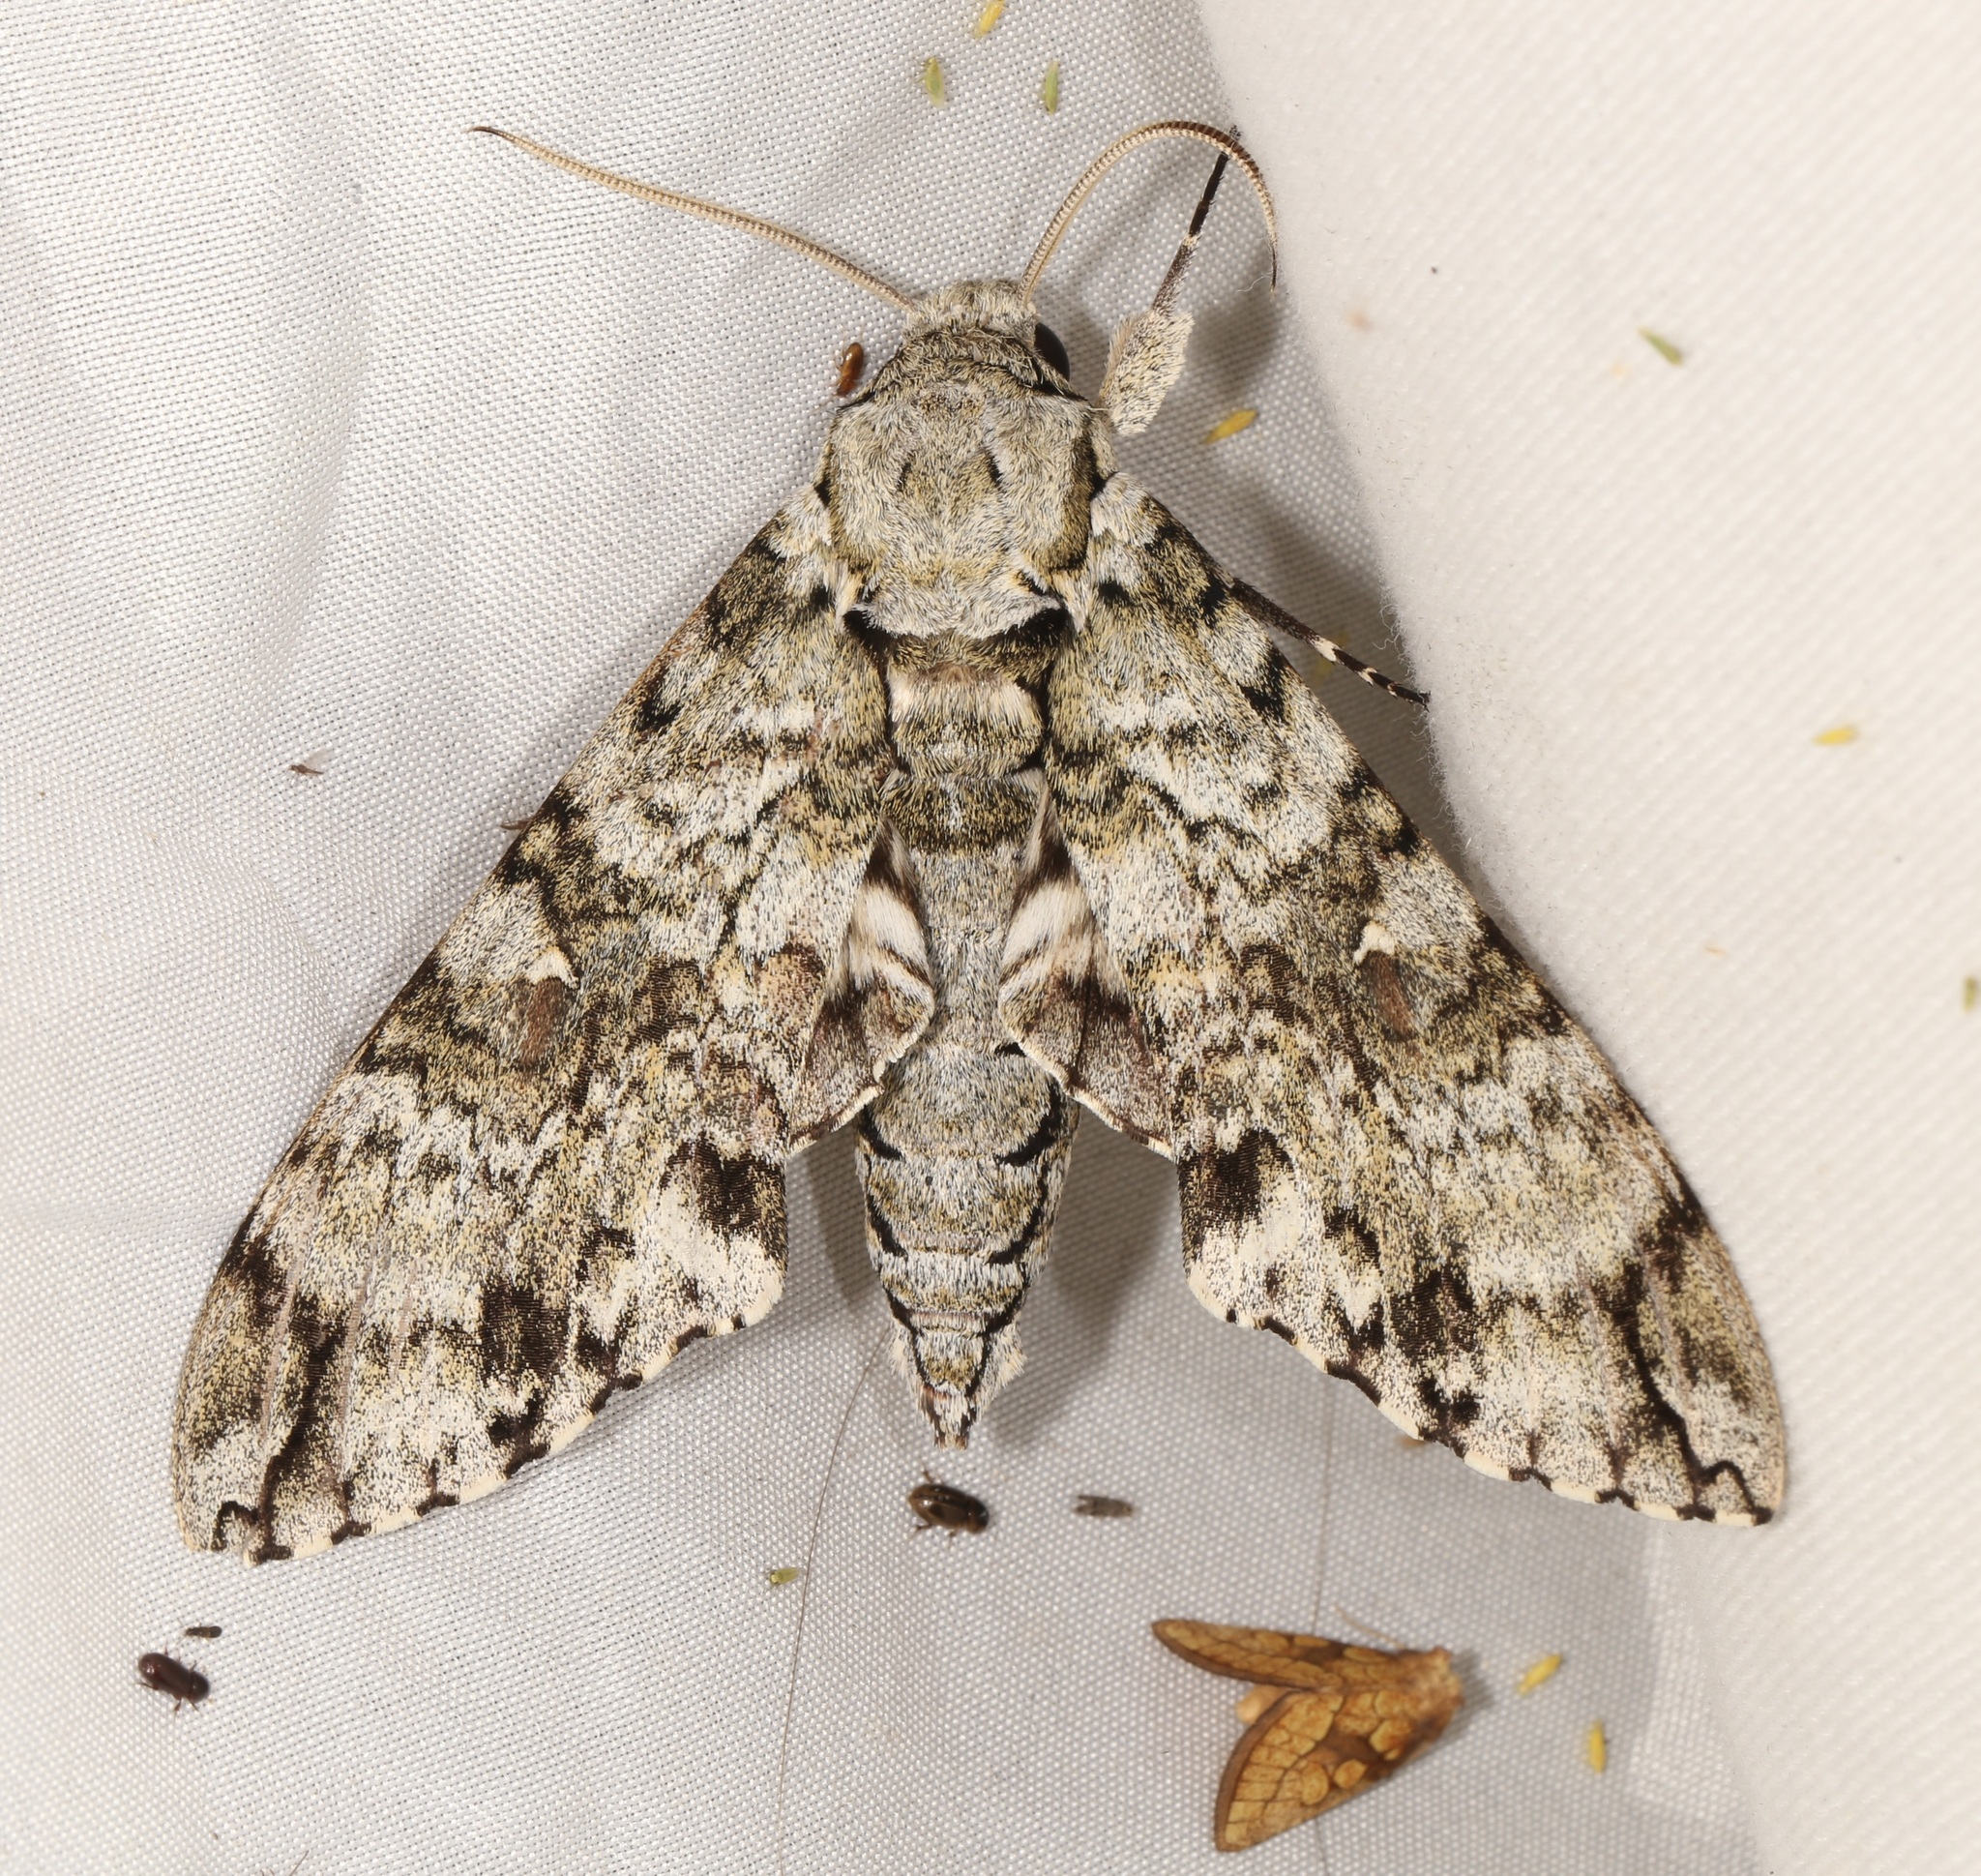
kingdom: Animalia
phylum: Arthropoda
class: Insecta
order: Lepidoptera
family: Sphingidae
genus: Manduca
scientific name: Manduca florestan
